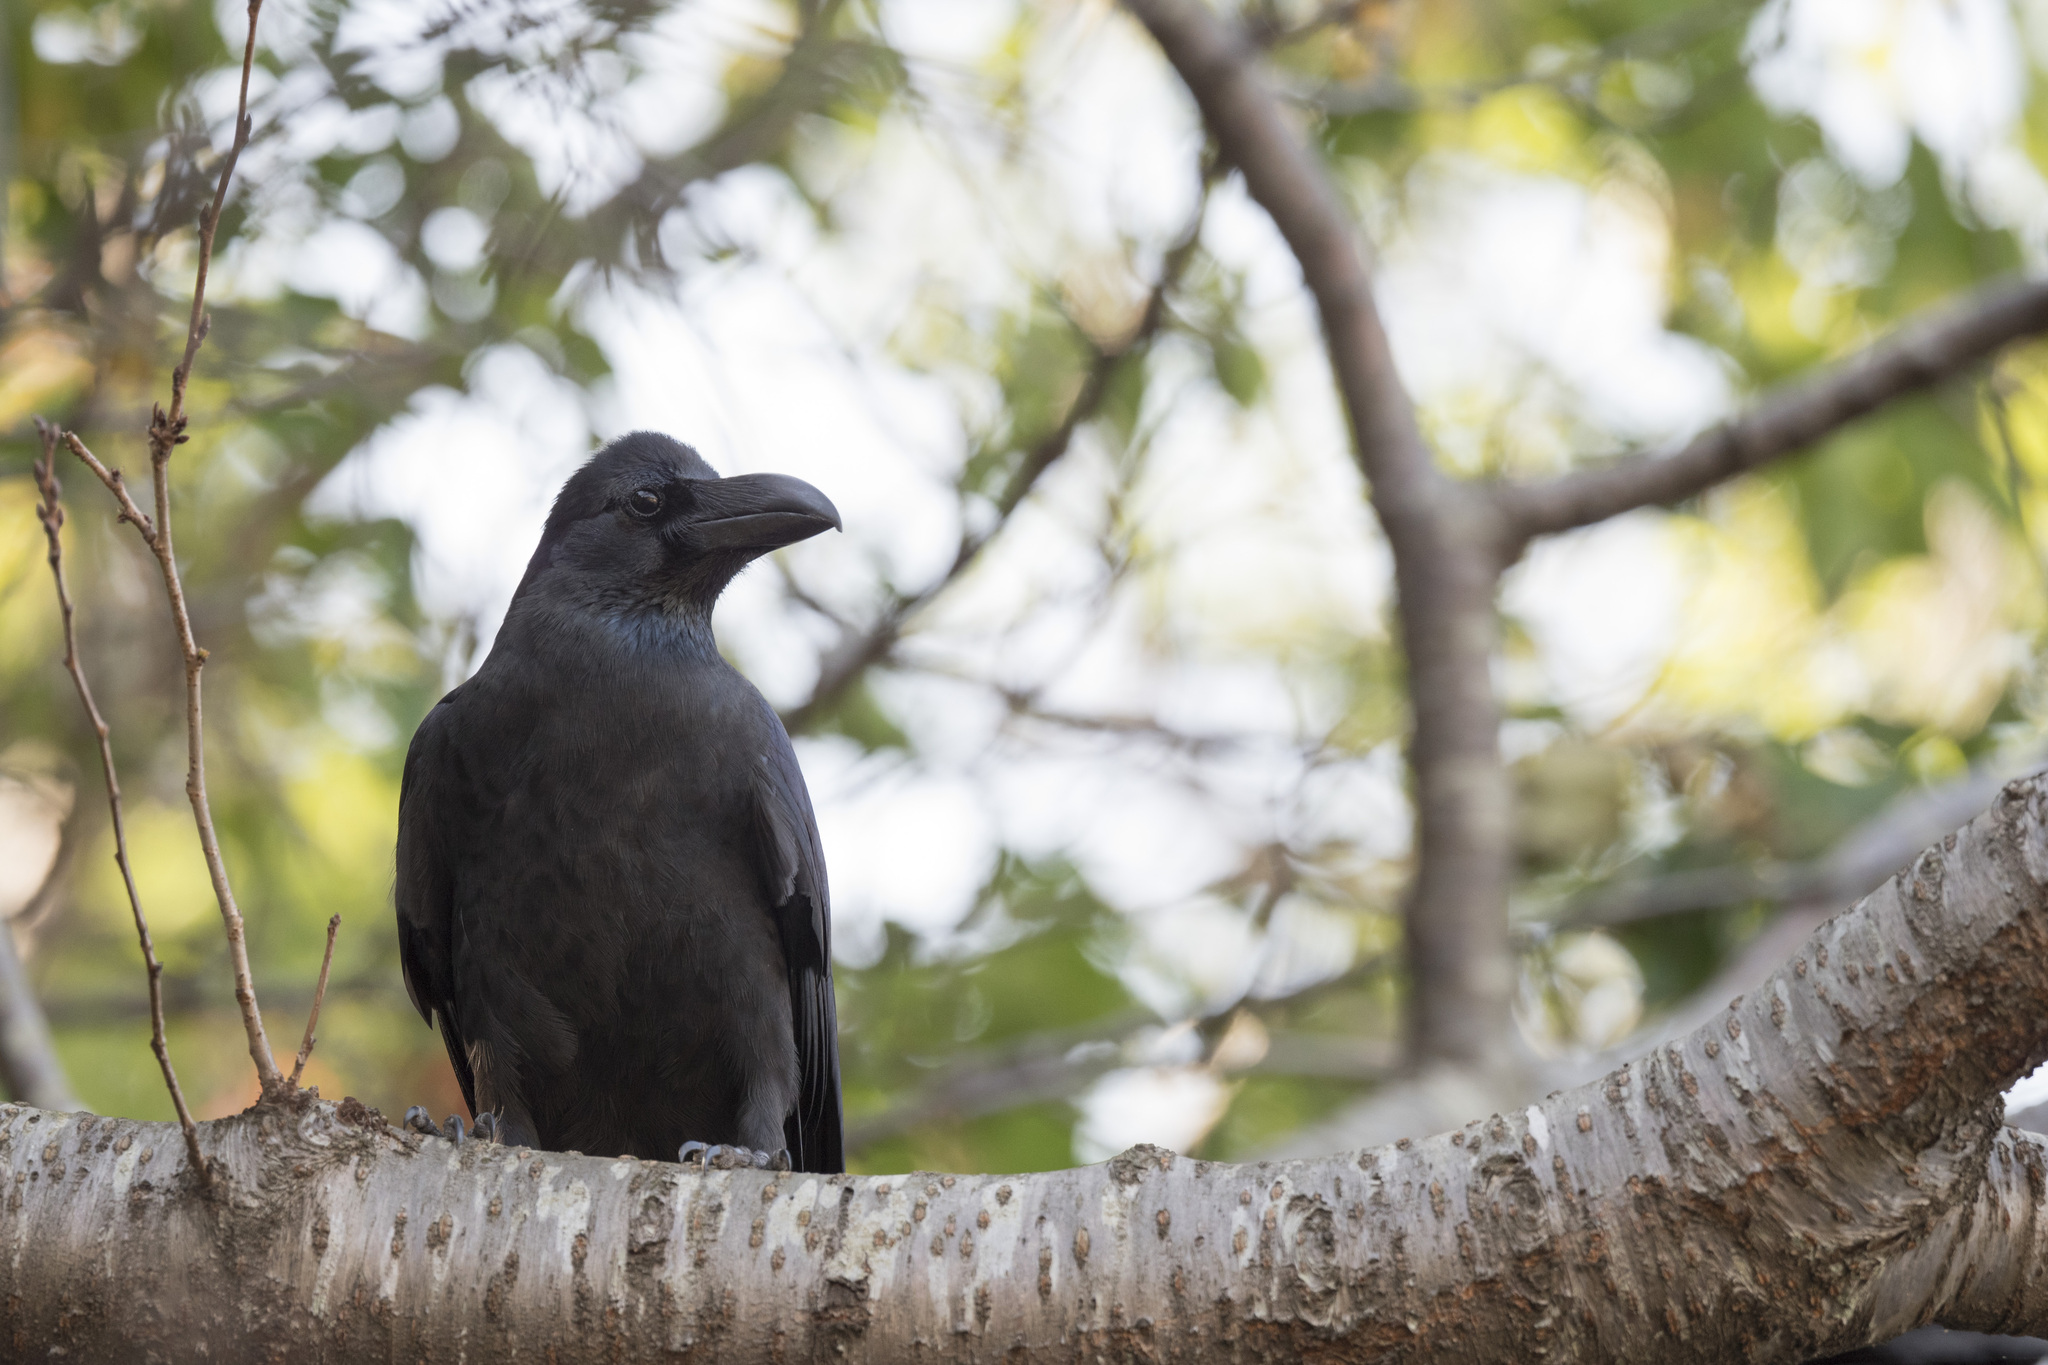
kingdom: Animalia
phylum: Chordata
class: Aves
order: Passeriformes
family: Corvidae
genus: Corvus
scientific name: Corvus macrorhynchos
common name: Large-billed crow
